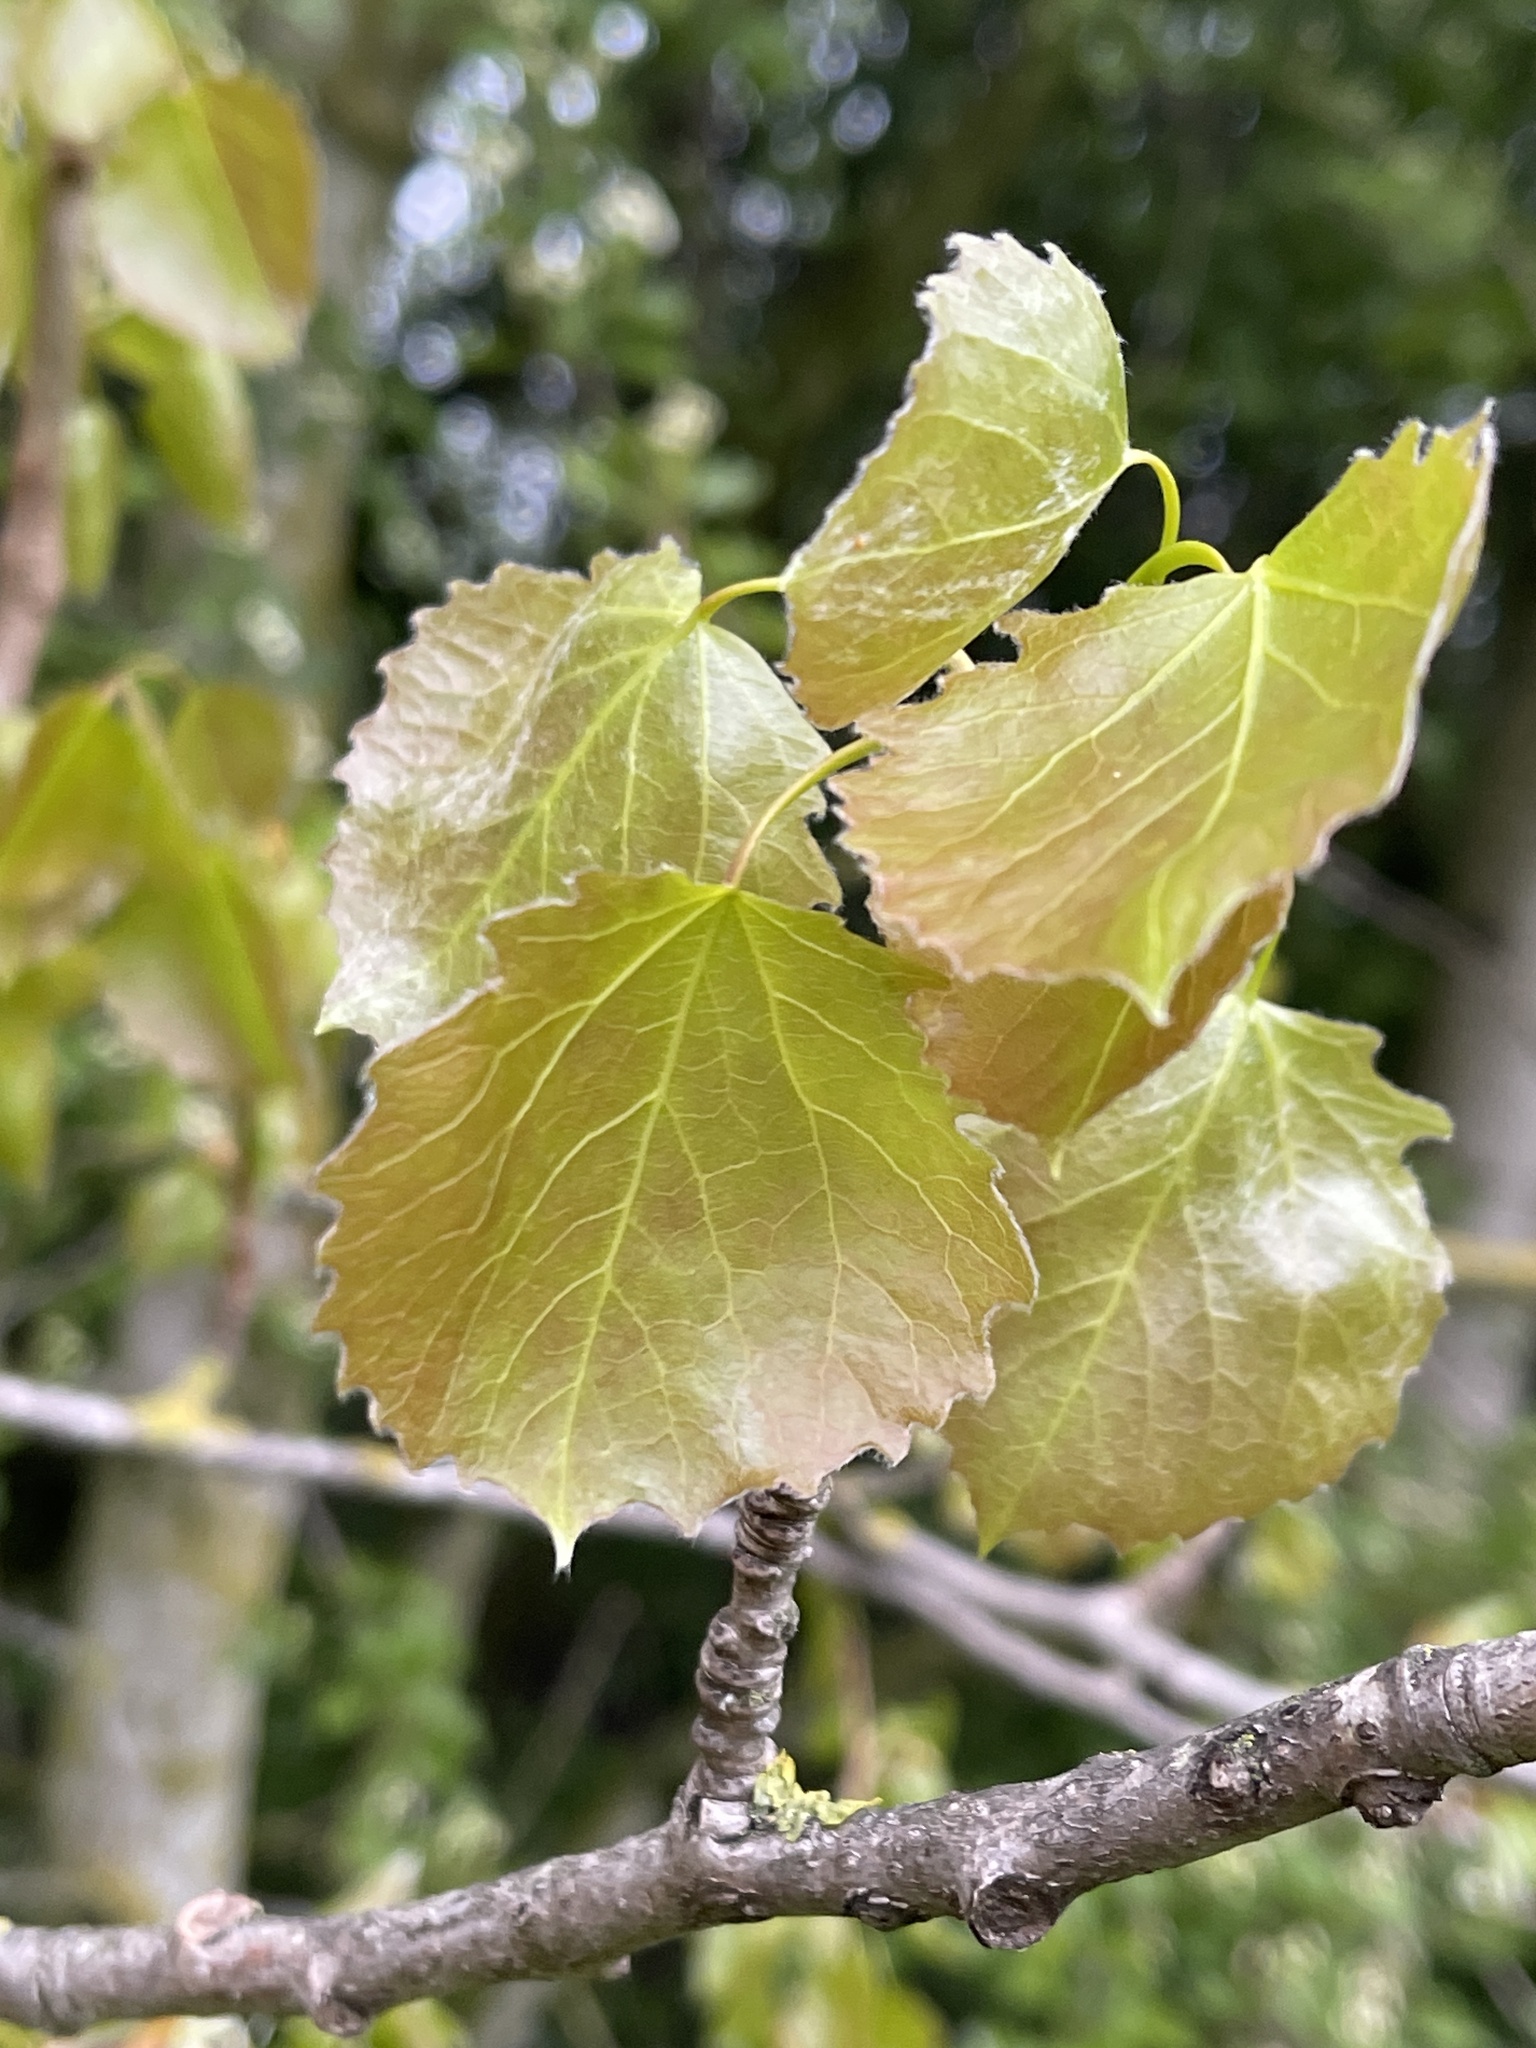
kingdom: Plantae
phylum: Tracheophyta
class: Magnoliopsida
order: Malpighiales
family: Salicaceae
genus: Populus
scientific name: Populus tremula
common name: European aspen
